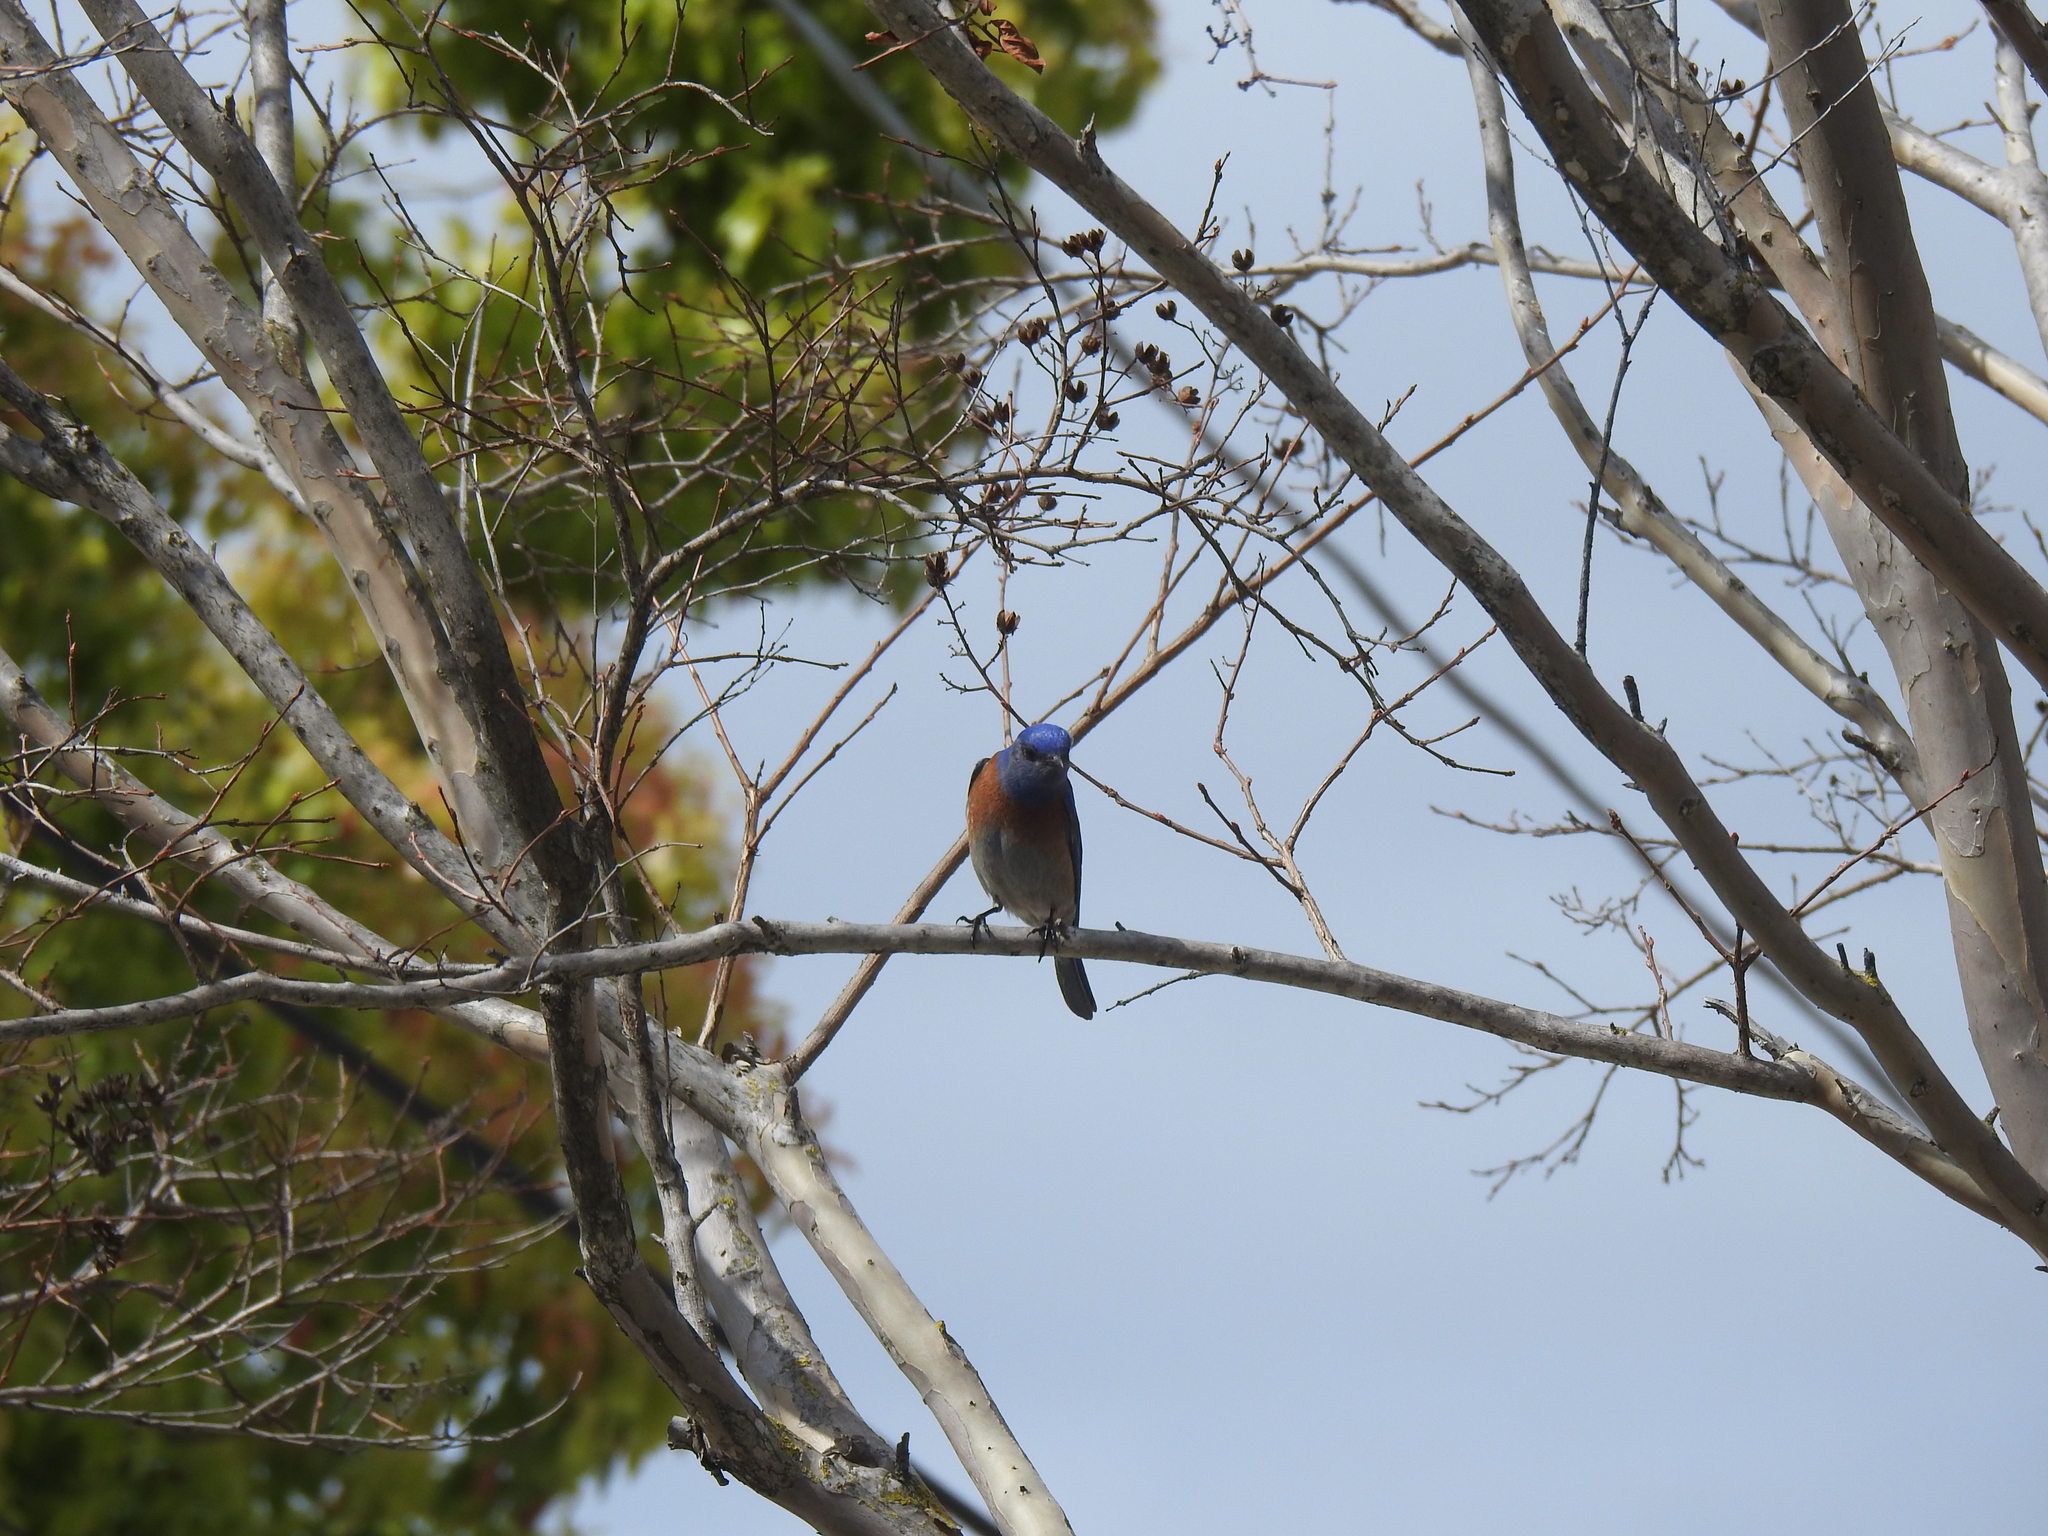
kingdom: Animalia
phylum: Chordata
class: Aves
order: Passeriformes
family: Turdidae
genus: Sialia
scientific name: Sialia mexicana
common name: Western bluebird
